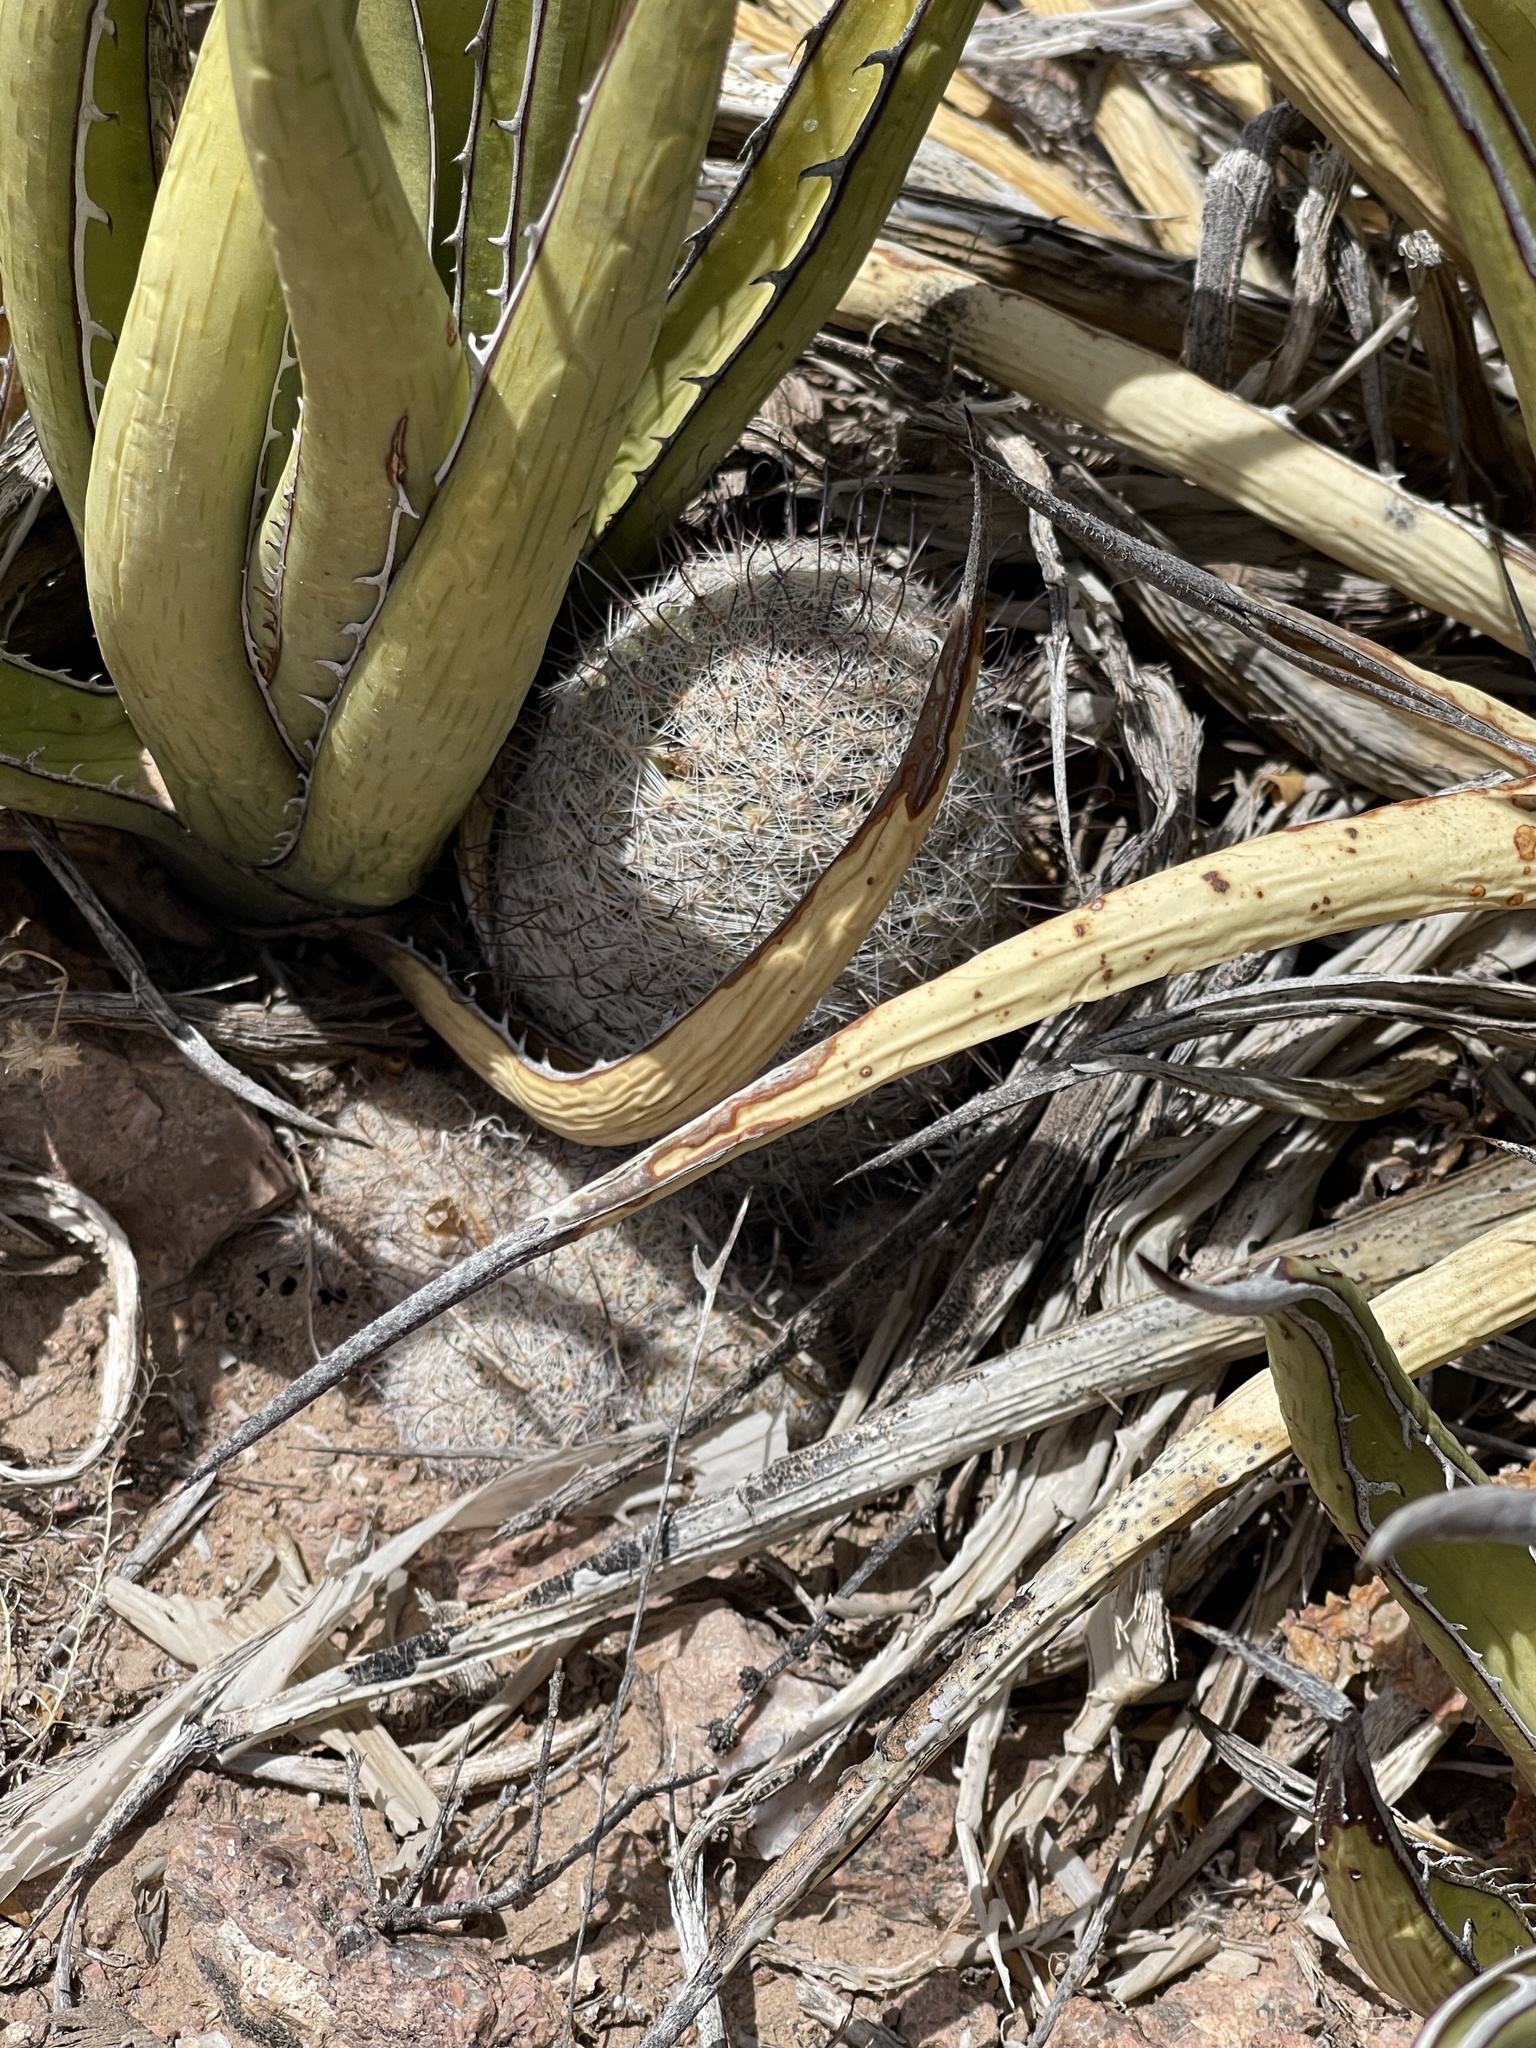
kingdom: Plantae
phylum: Tracheophyta
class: Magnoliopsida
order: Caryophyllales
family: Cactaceae
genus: Cochemiea
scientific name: Cochemiea grahamii
